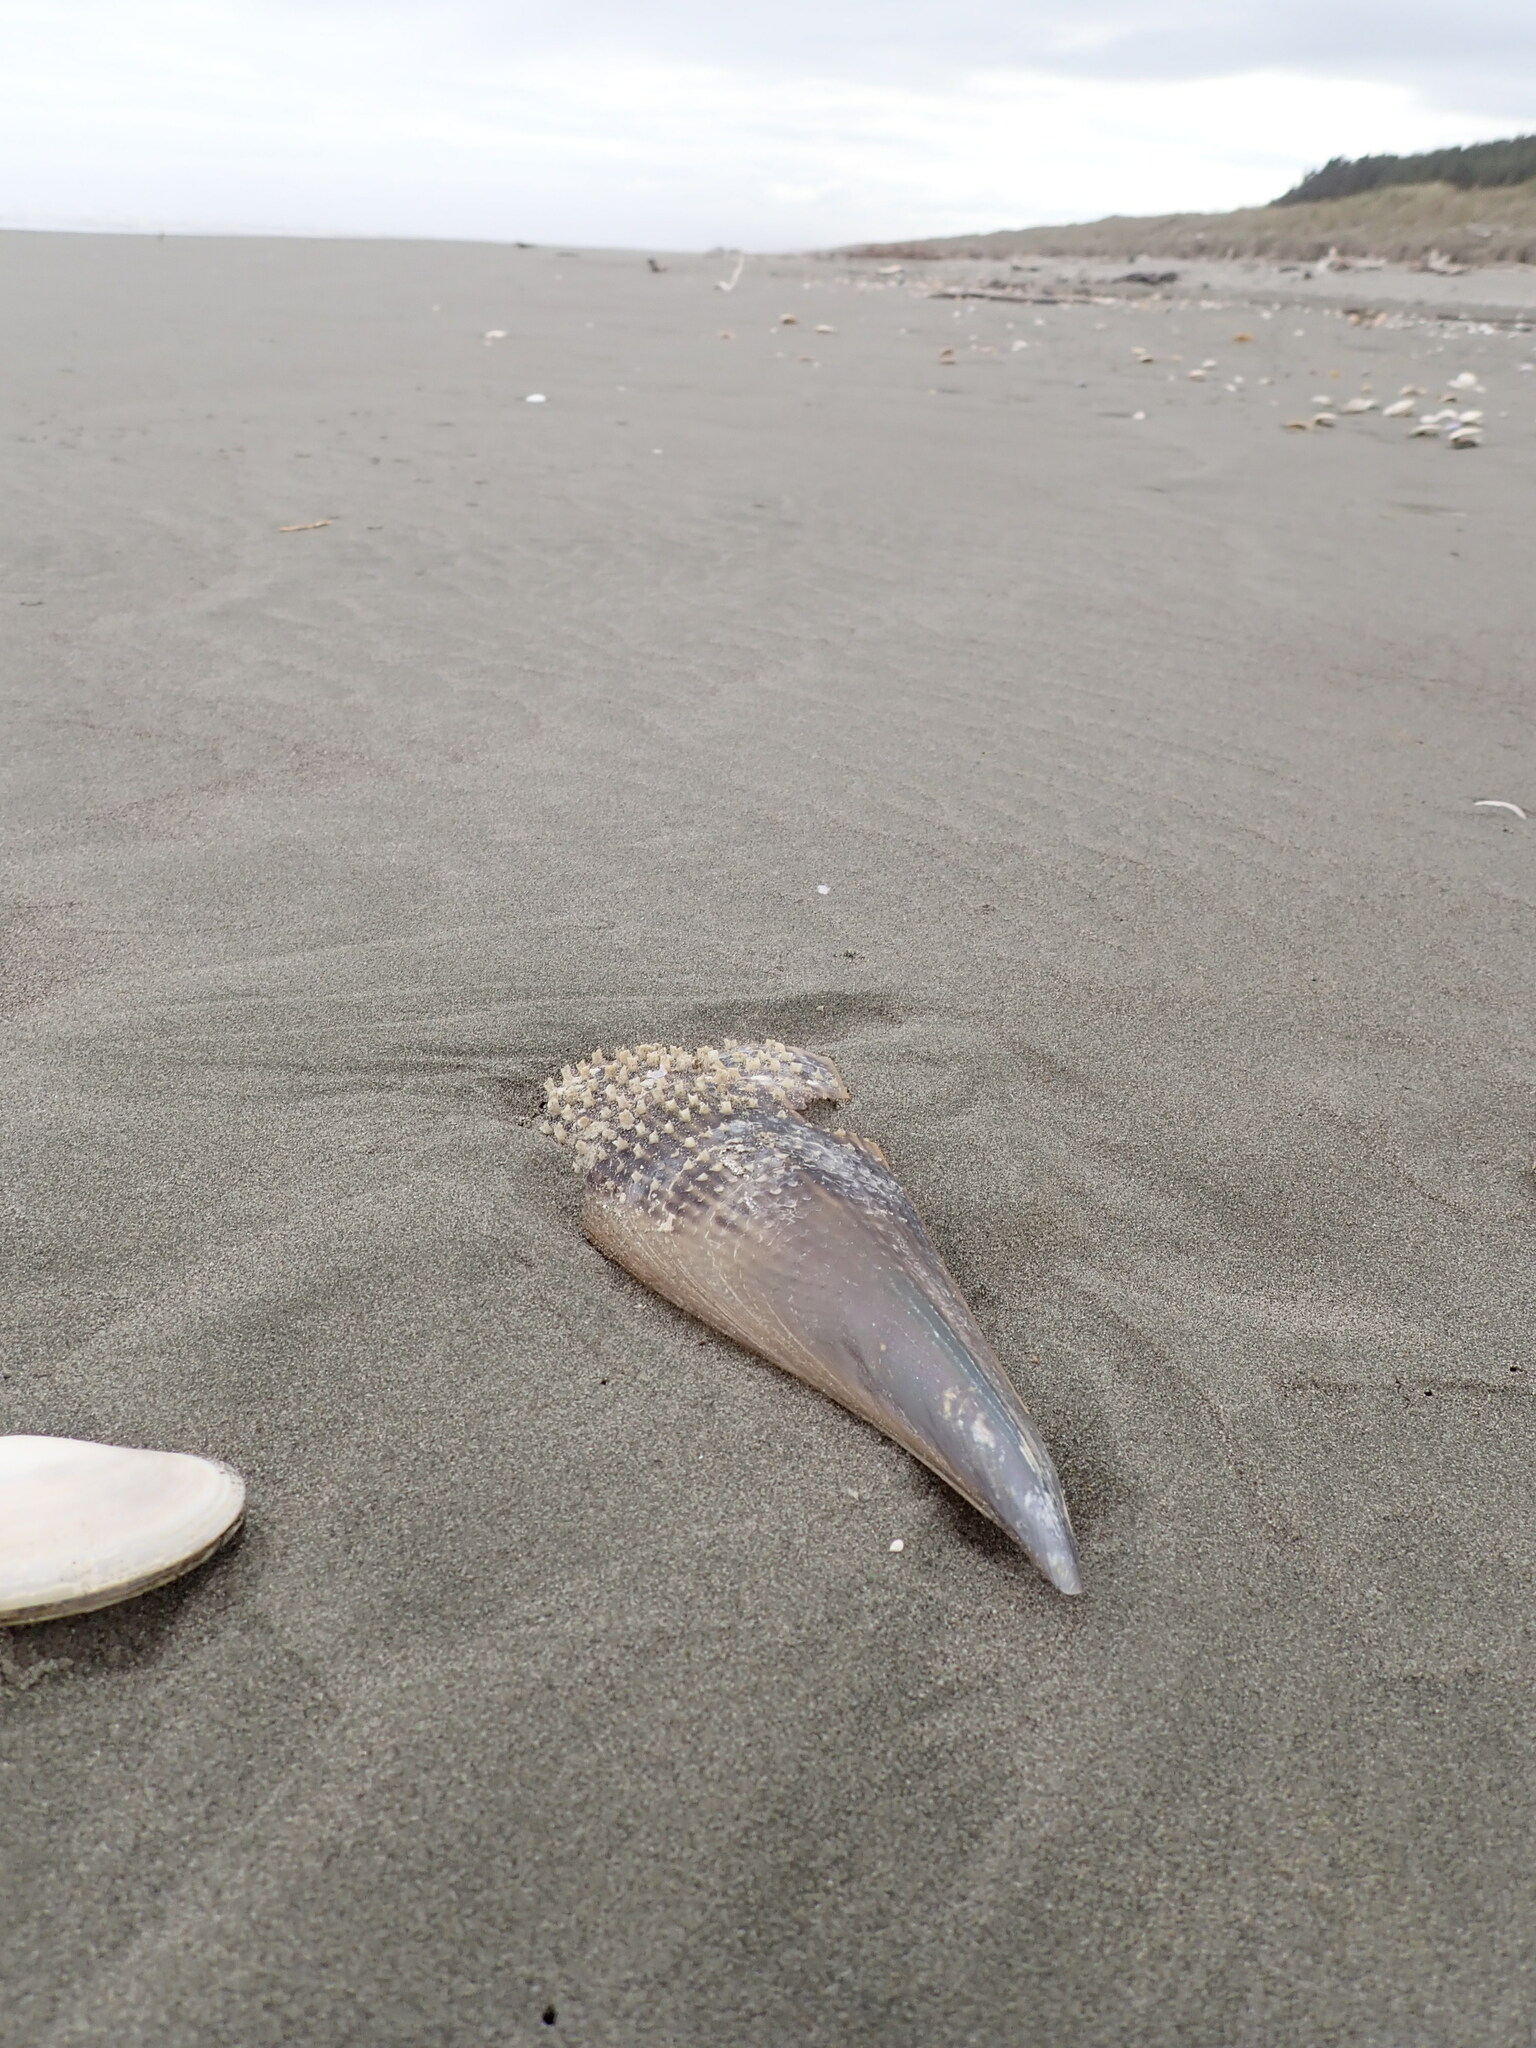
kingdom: Animalia
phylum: Mollusca
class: Bivalvia
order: Ostreida
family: Pinnidae
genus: Atrina
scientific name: Atrina zelandica
